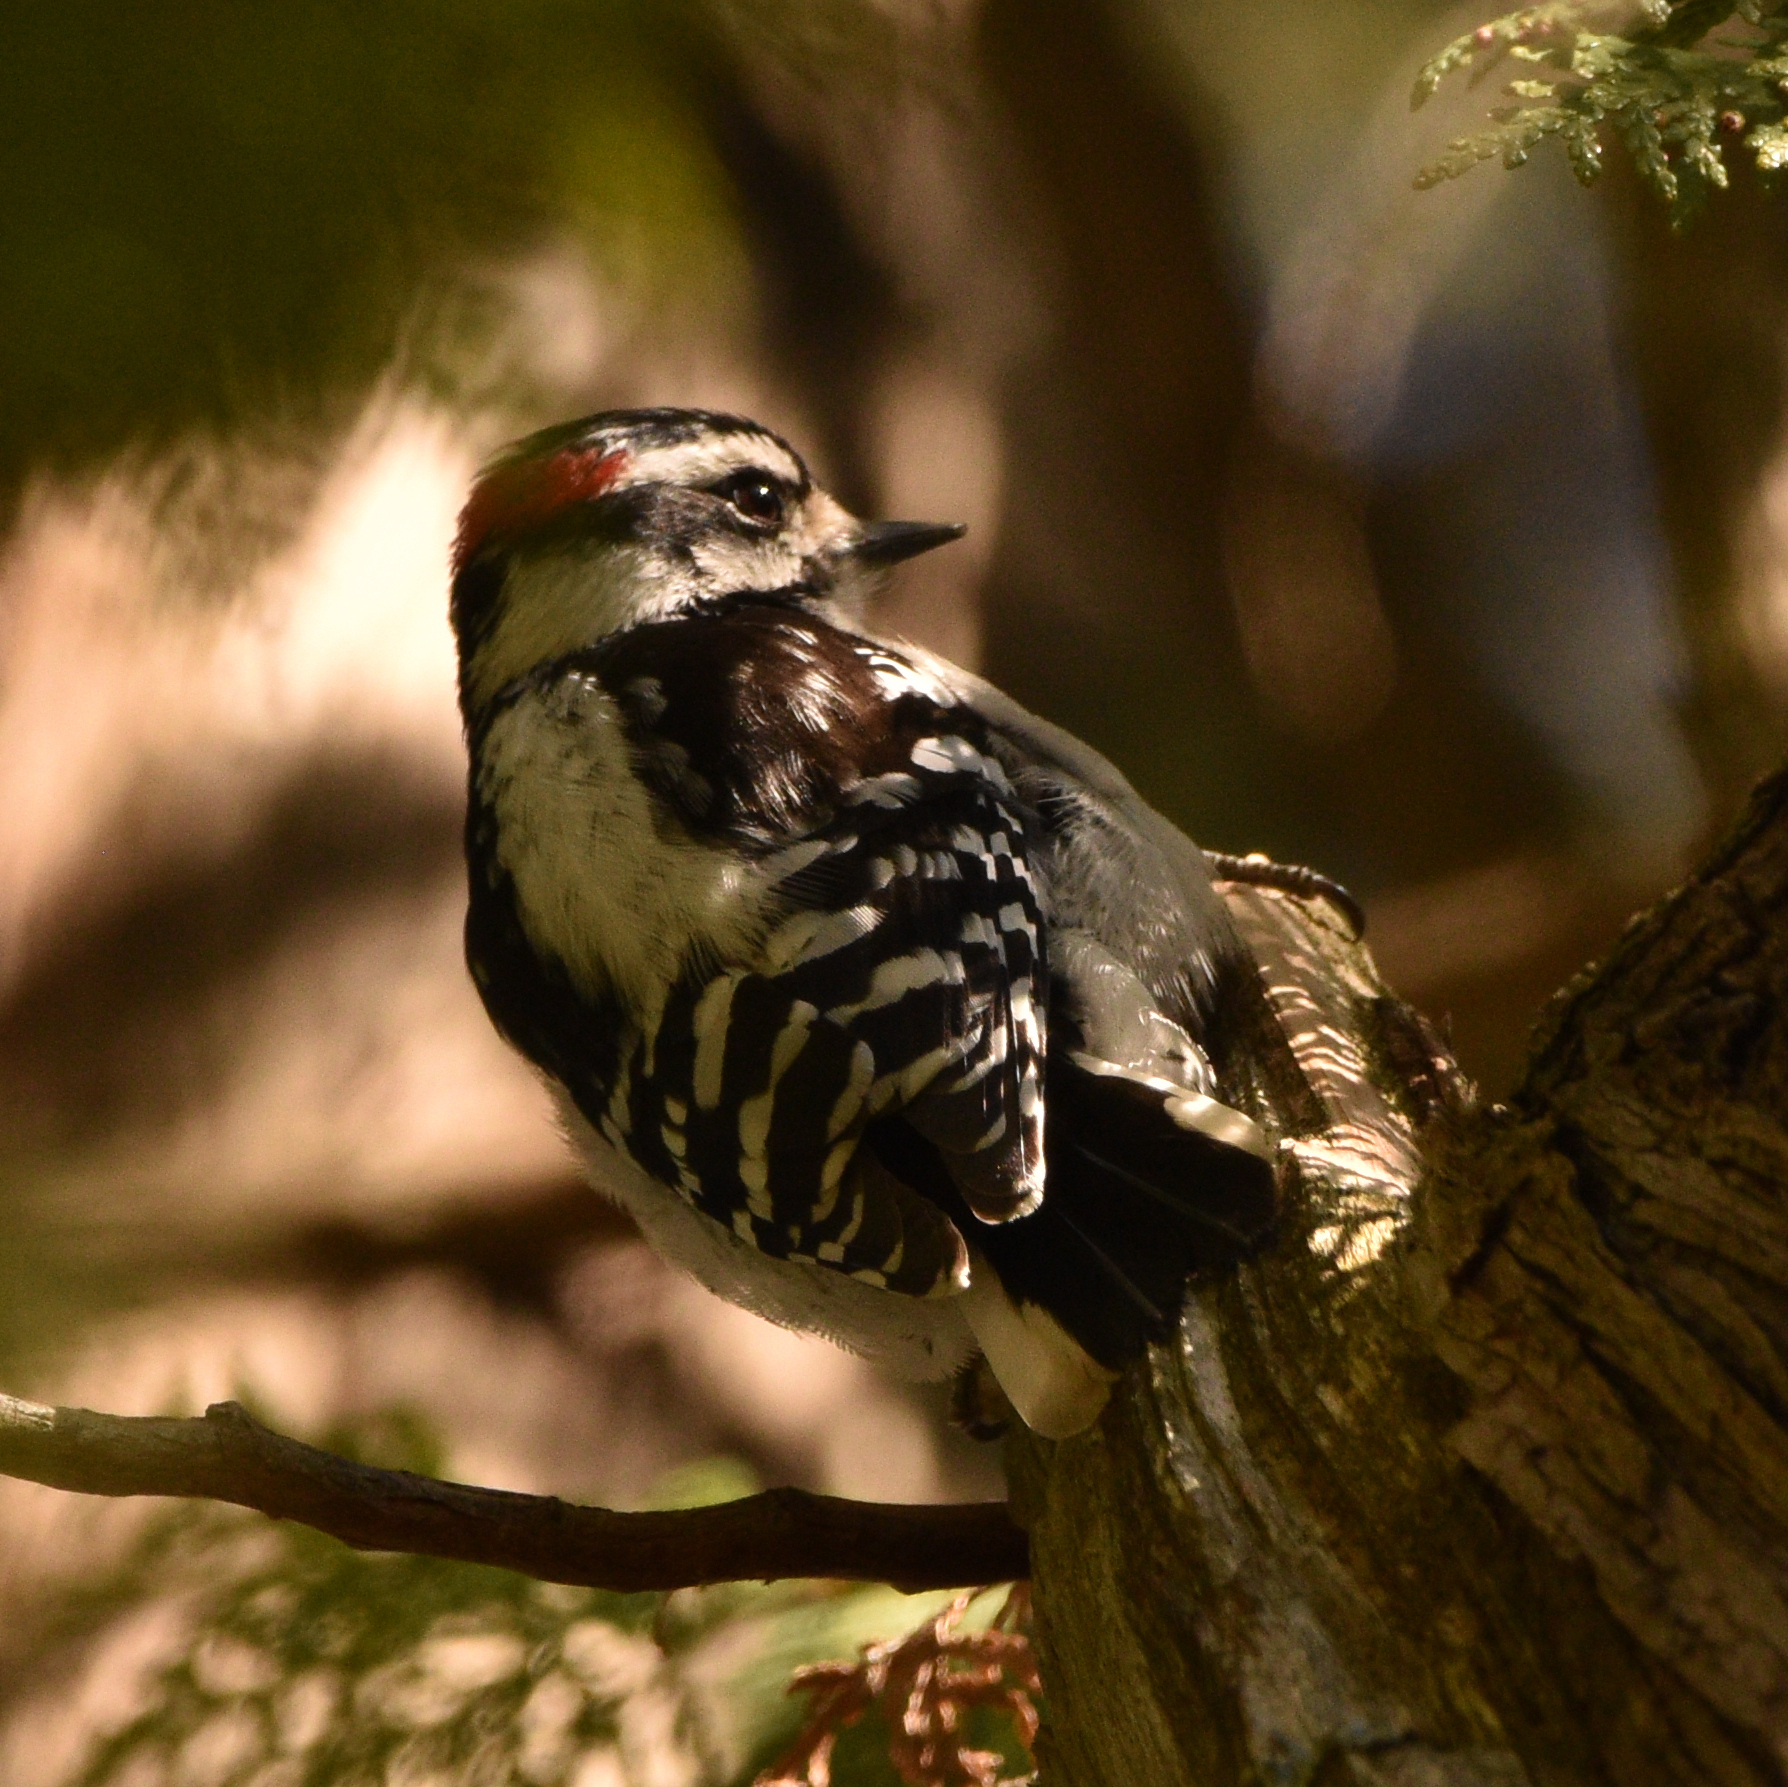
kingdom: Animalia
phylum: Chordata
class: Aves
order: Piciformes
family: Picidae
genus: Dryobates
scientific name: Dryobates pubescens
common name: Downy woodpecker
